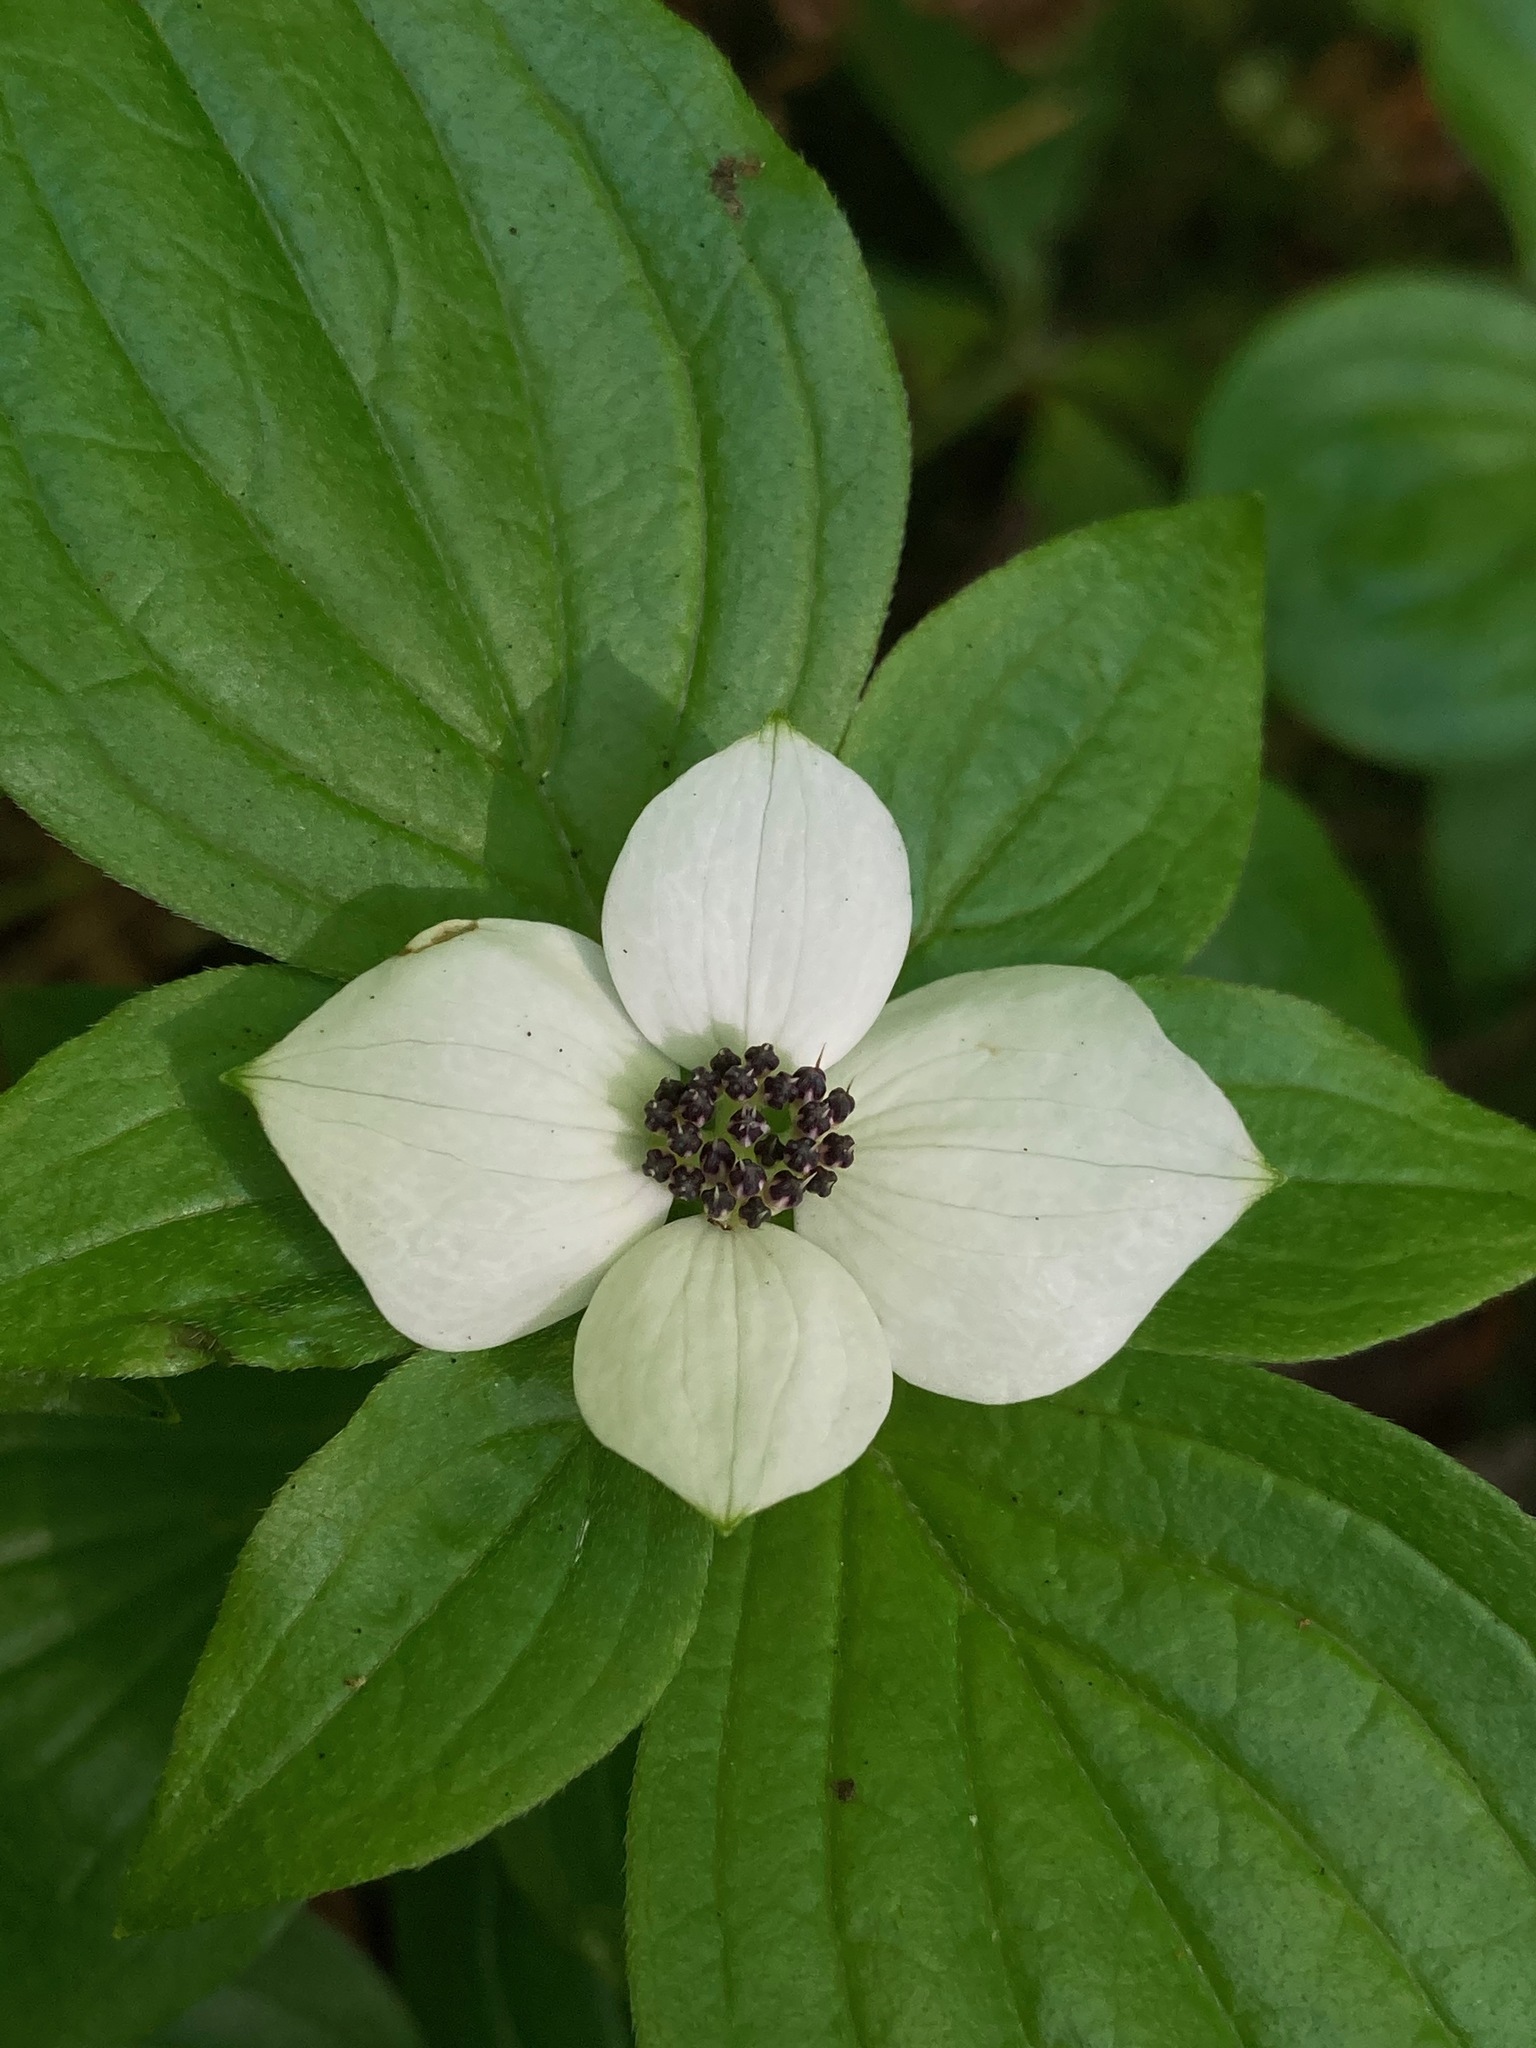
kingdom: Plantae
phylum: Tracheophyta
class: Magnoliopsida
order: Cornales
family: Cornaceae
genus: Cornus
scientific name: Cornus unalaschkensis
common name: Alaska bunchberry
